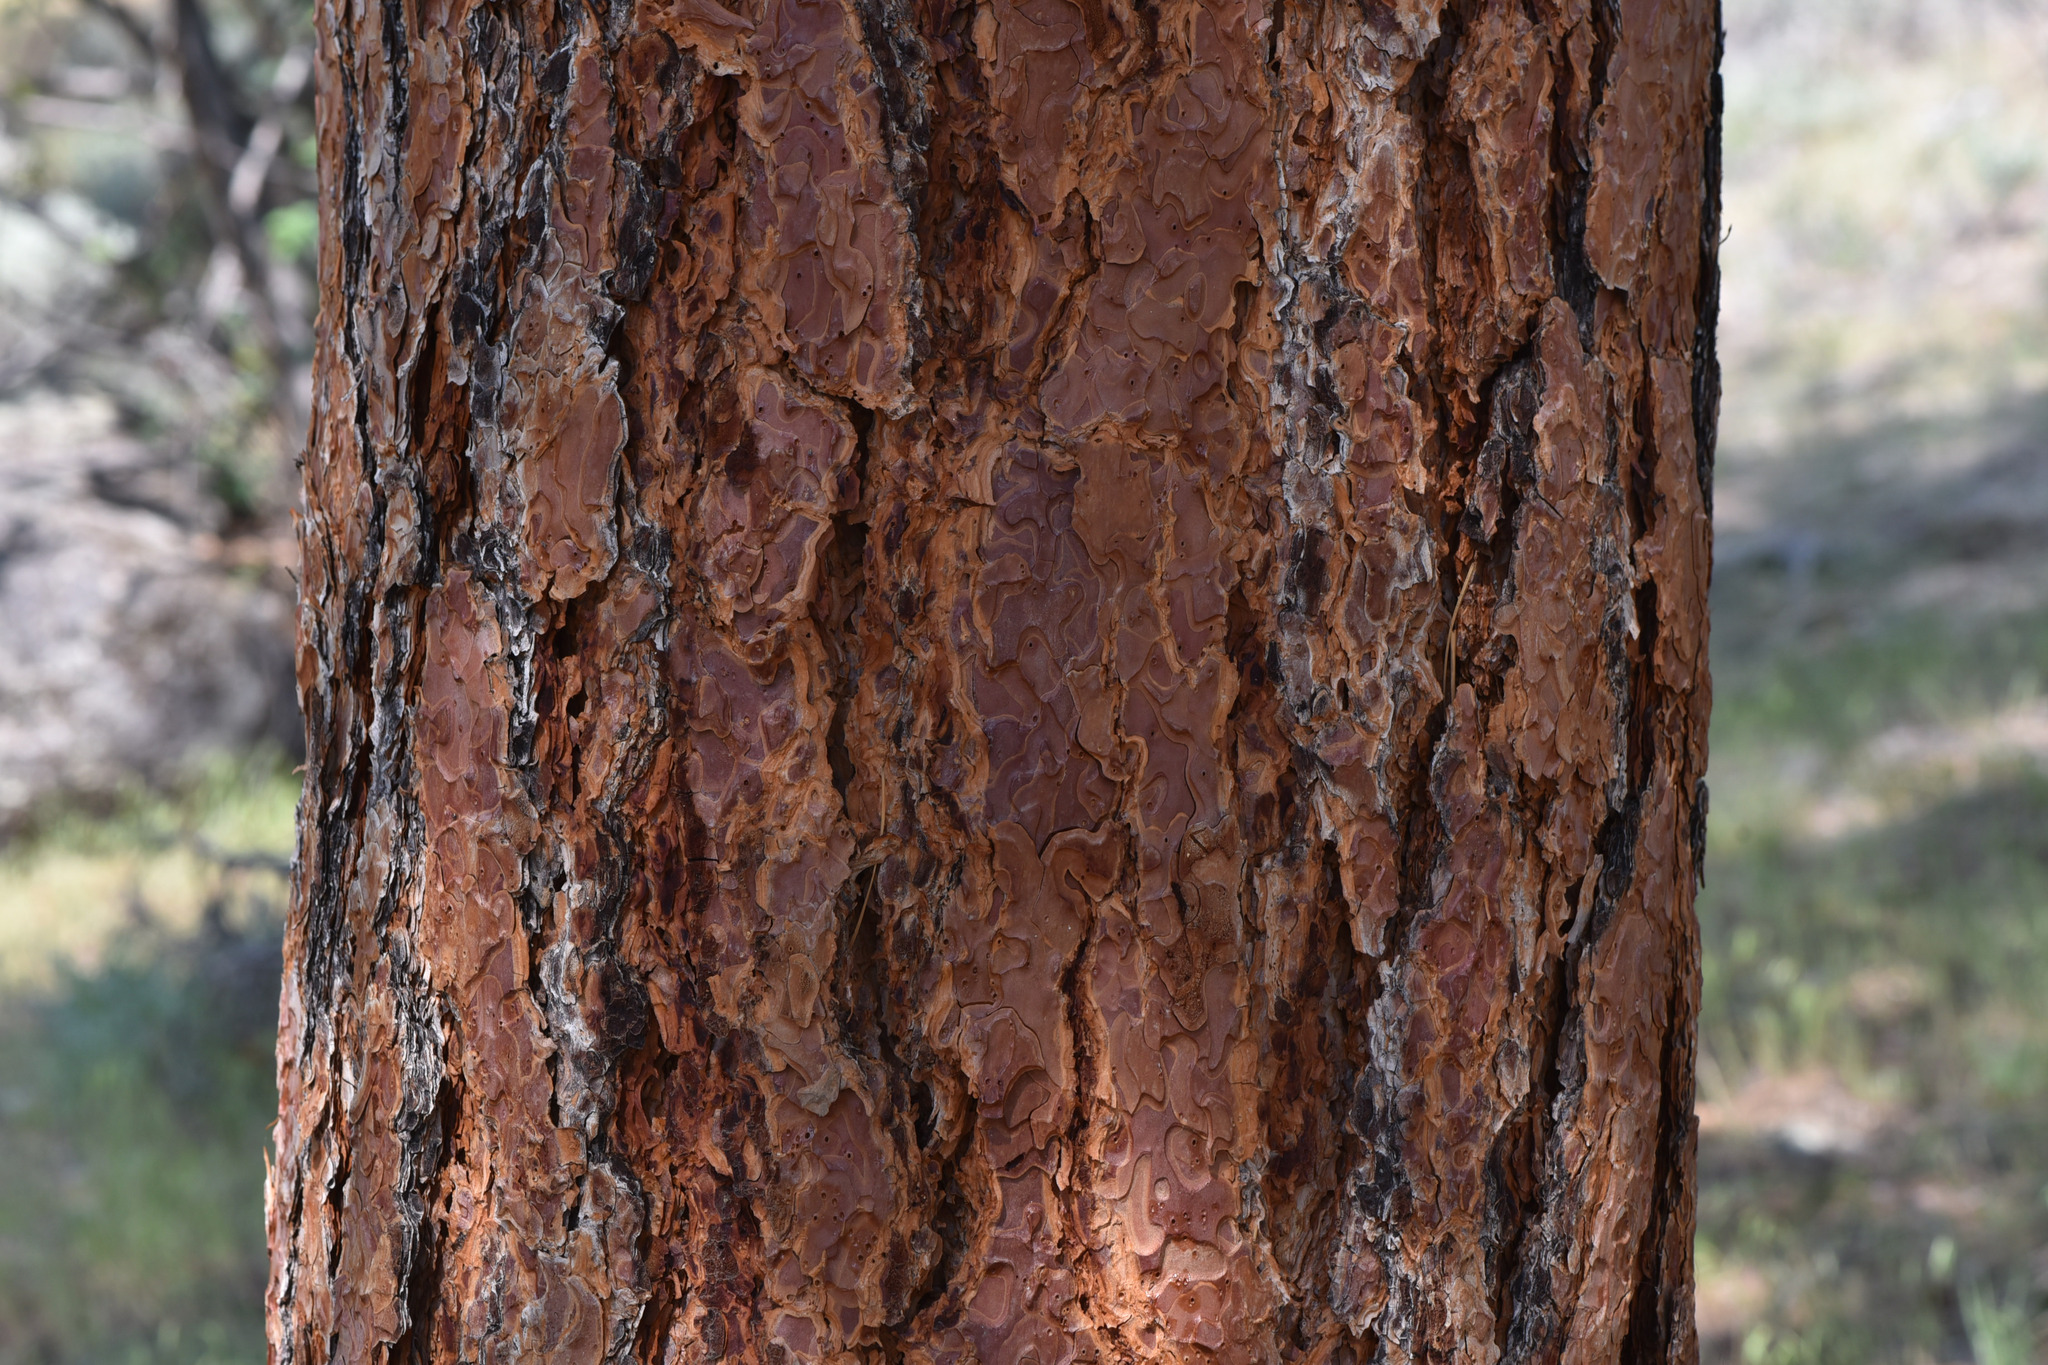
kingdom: Plantae
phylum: Tracheophyta
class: Pinopsida
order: Pinales
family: Pinaceae
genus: Pinus
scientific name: Pinus ponderosa
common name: Western yellow-pine
